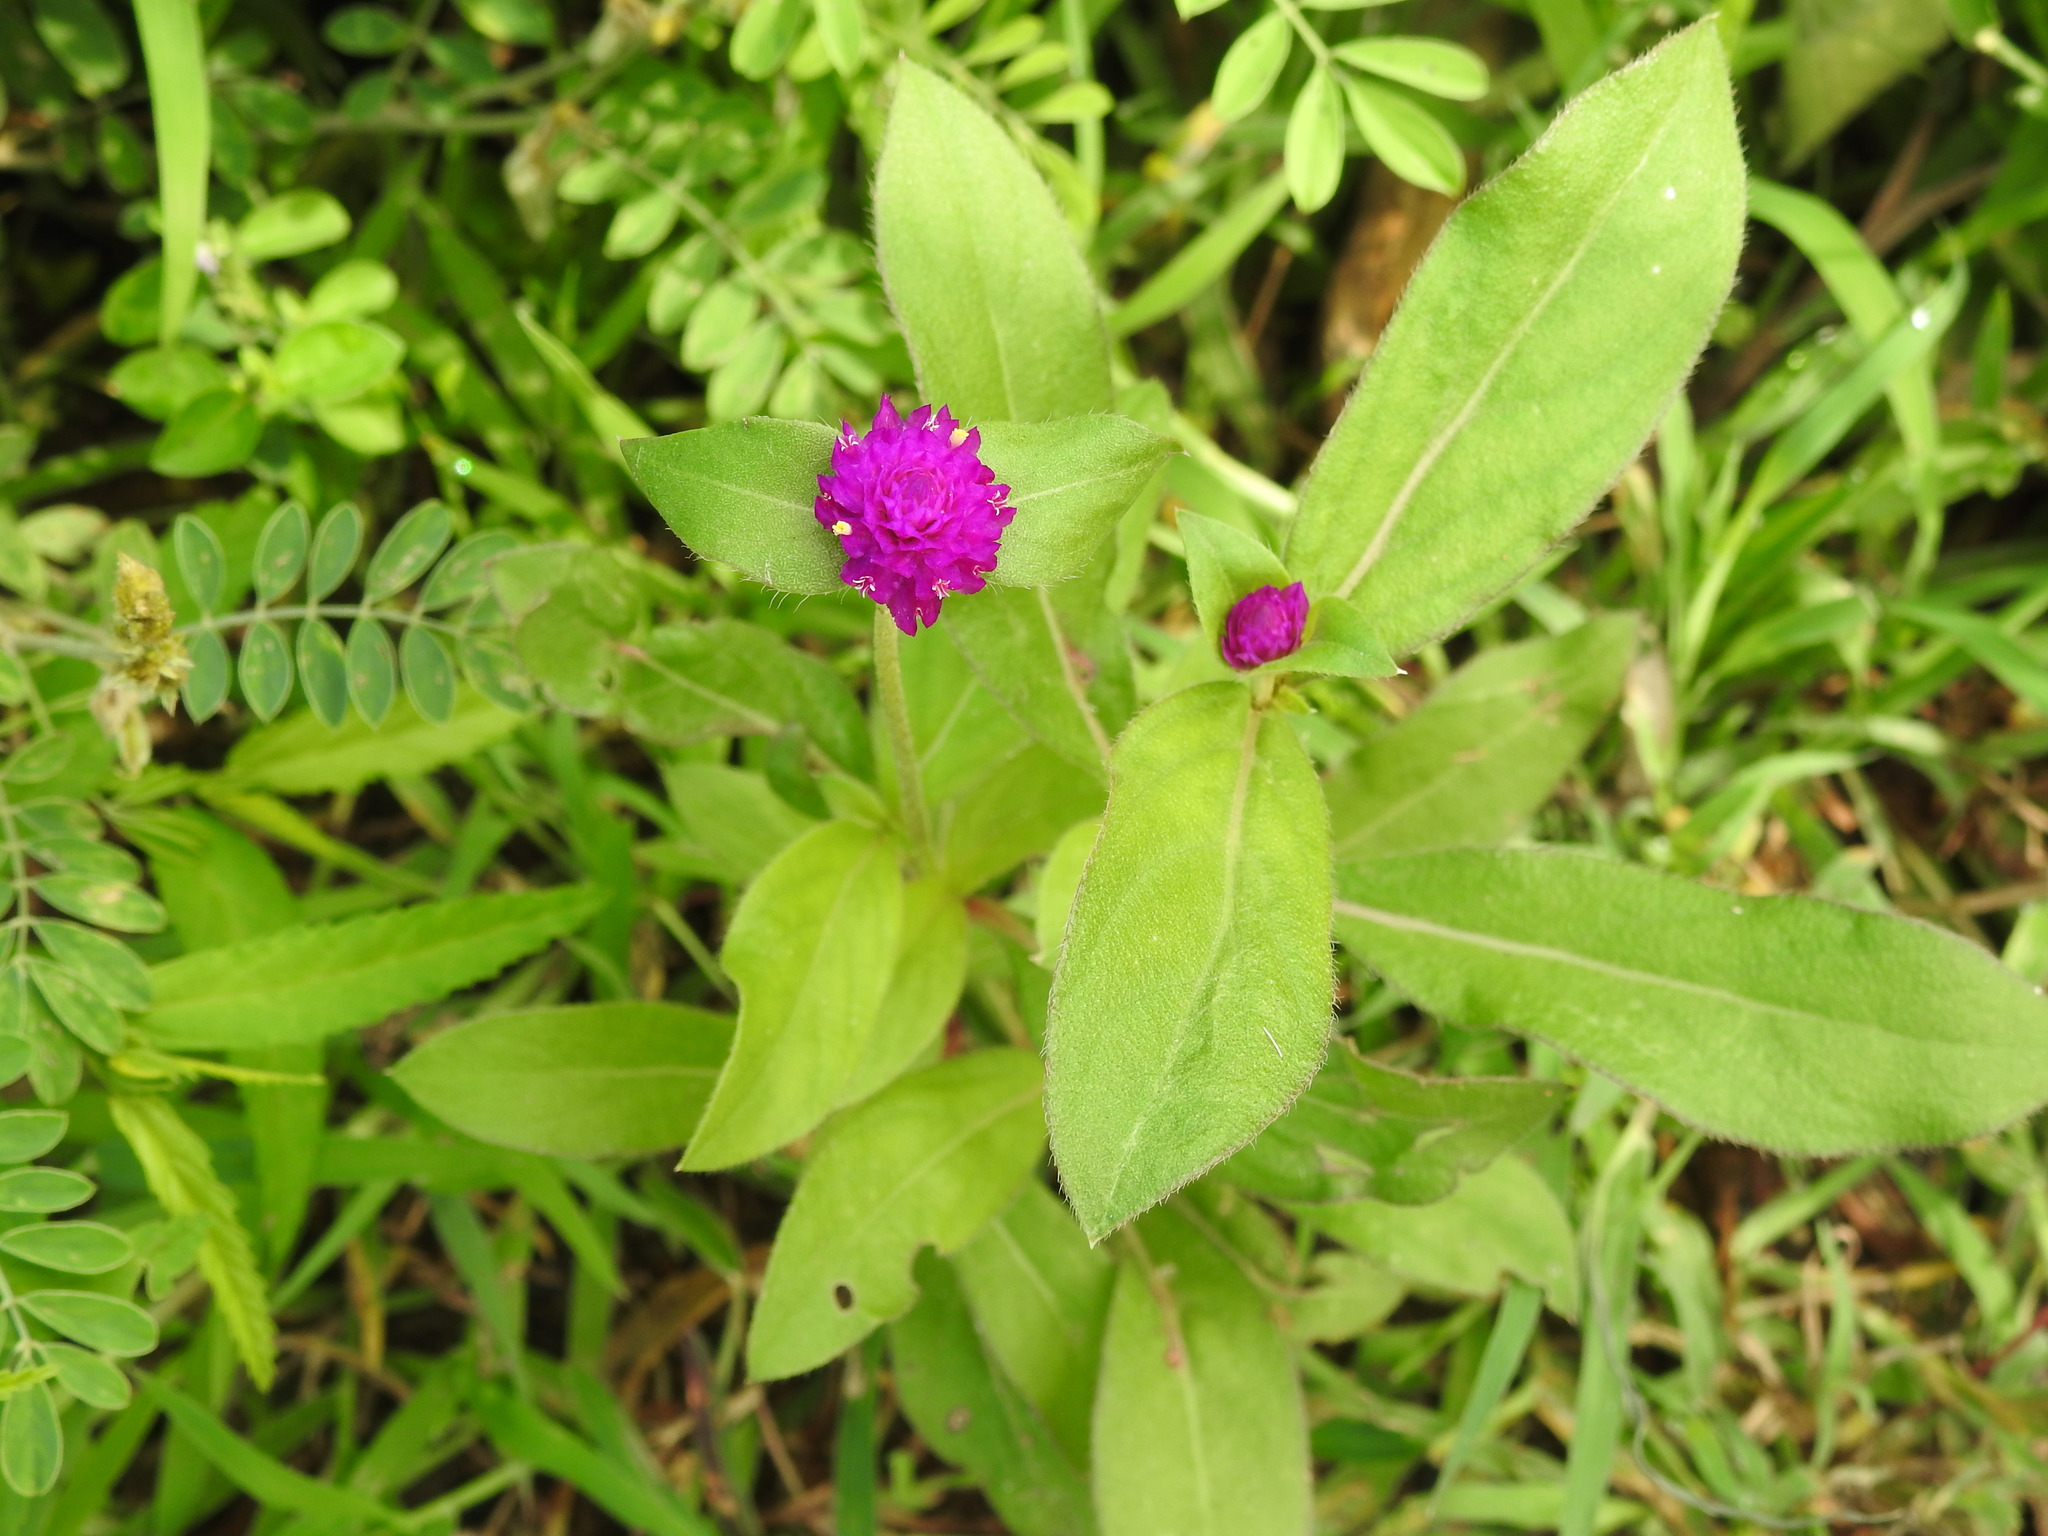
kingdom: Plantae
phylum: Tracheophyta
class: Magnoliopsida
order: Caryophyllales
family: Amaranthaceae
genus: Gomphrena
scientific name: Gomphrena globosa
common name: Common globe amaranth
